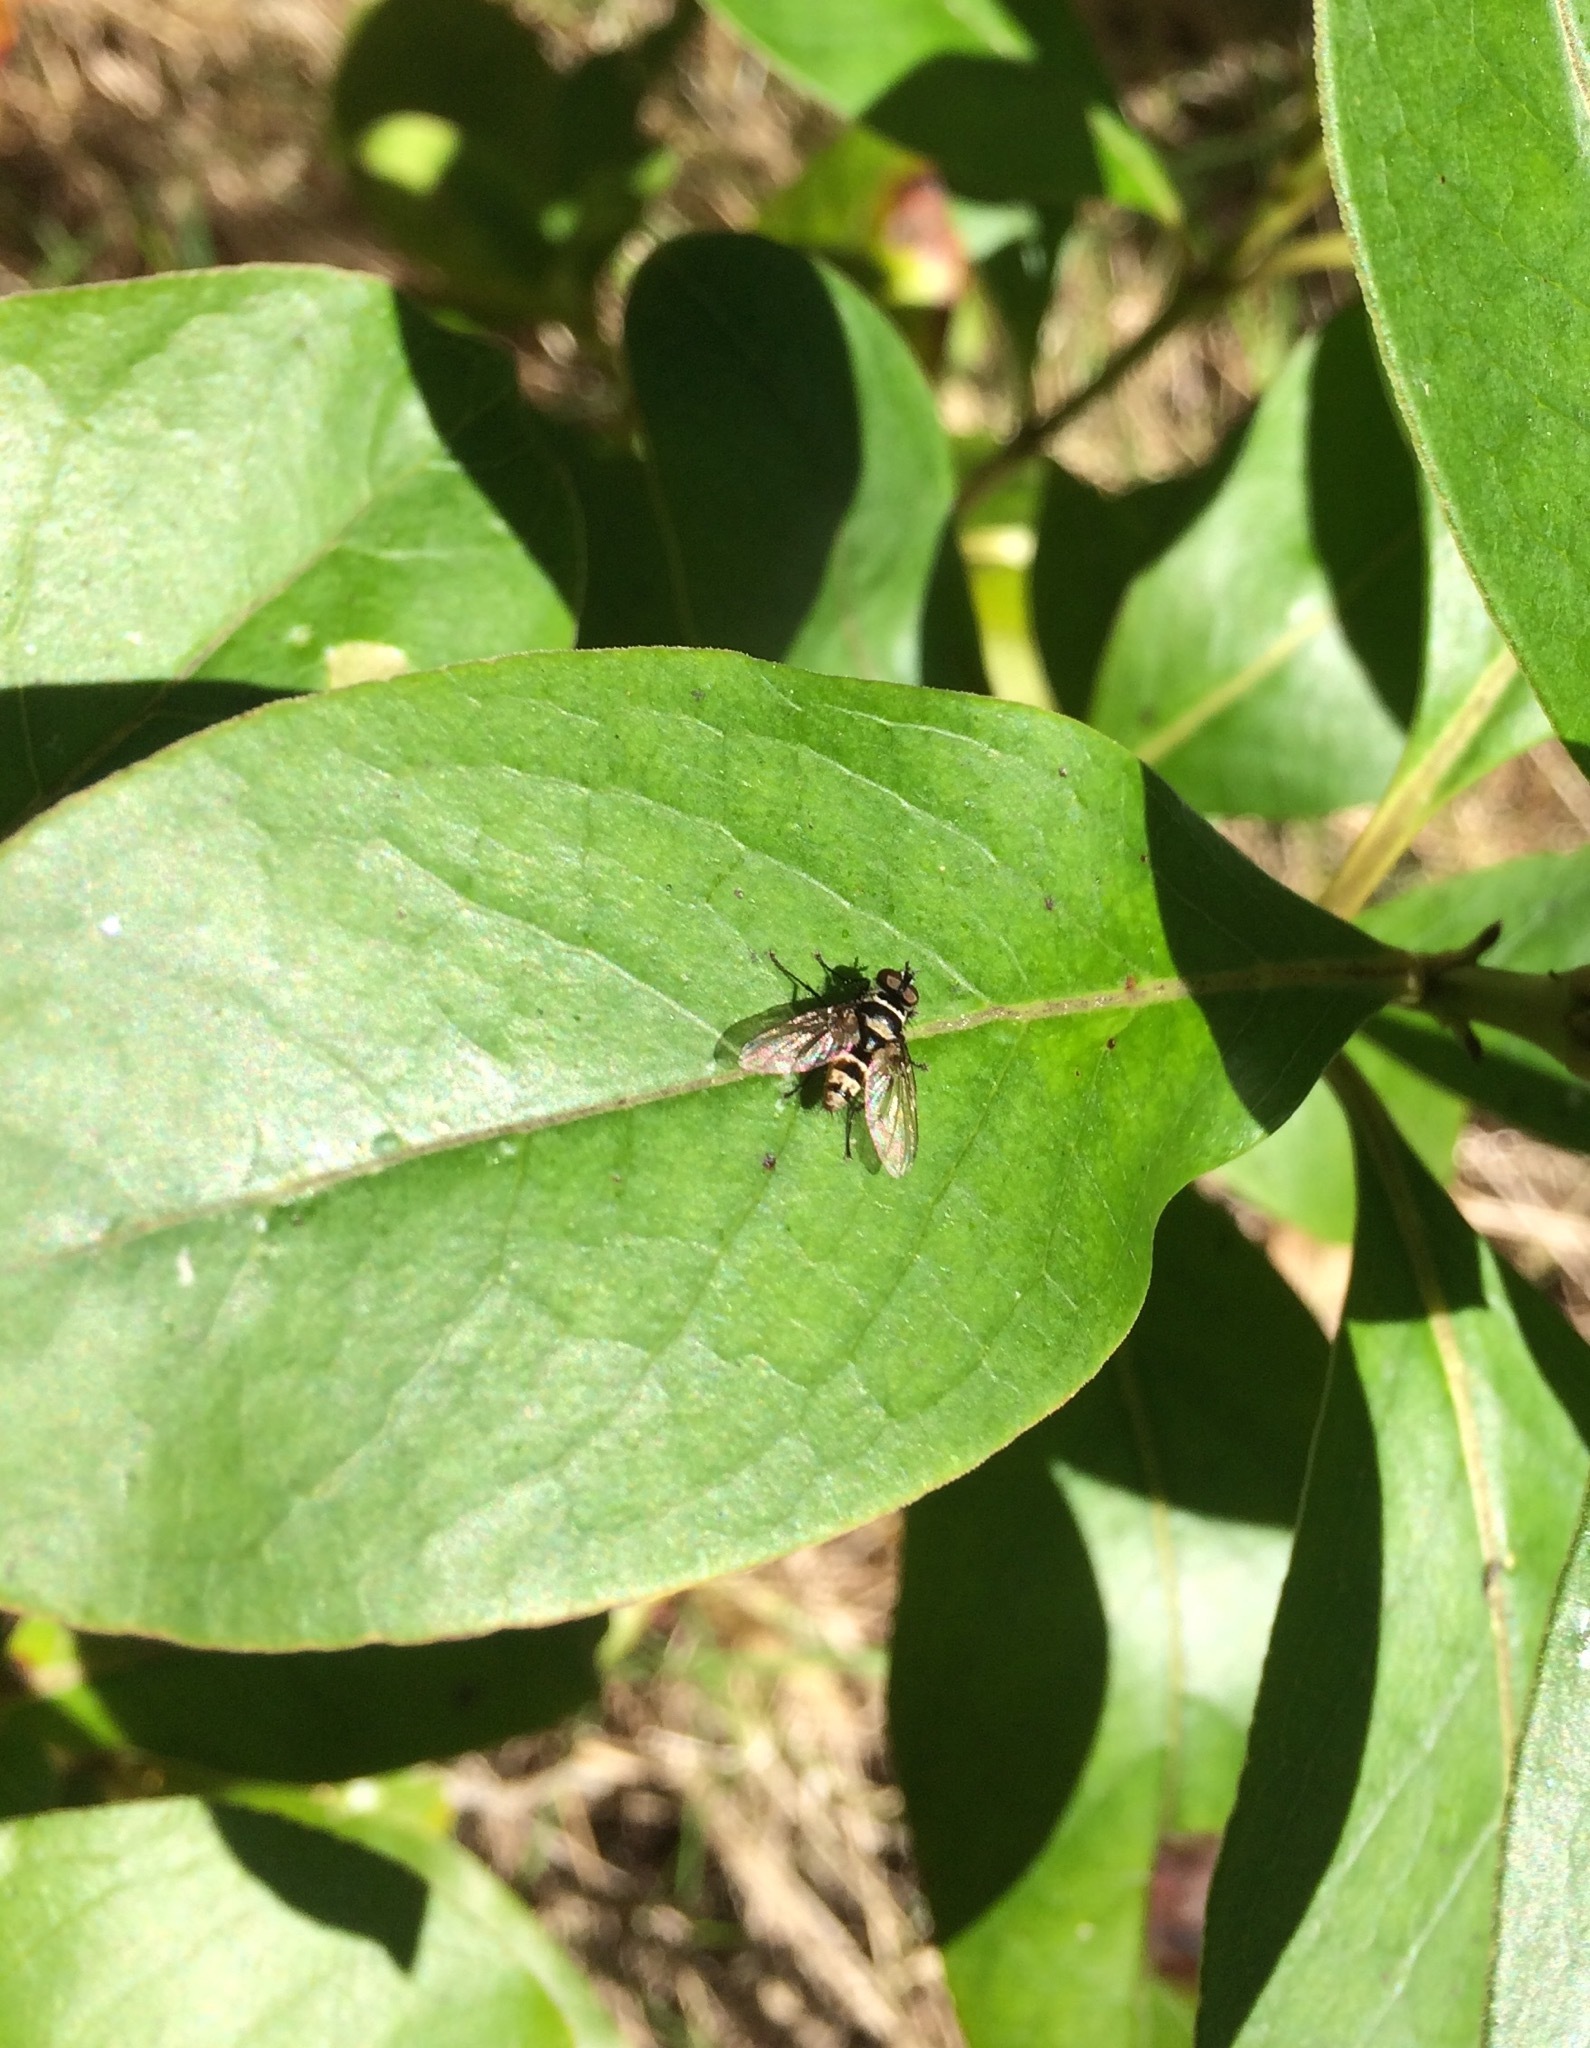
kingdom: Animalia
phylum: Arthropoda
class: Insecta
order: Diptera
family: Tachinidae
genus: Trigonospila
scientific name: Trigonospila brevifacies
